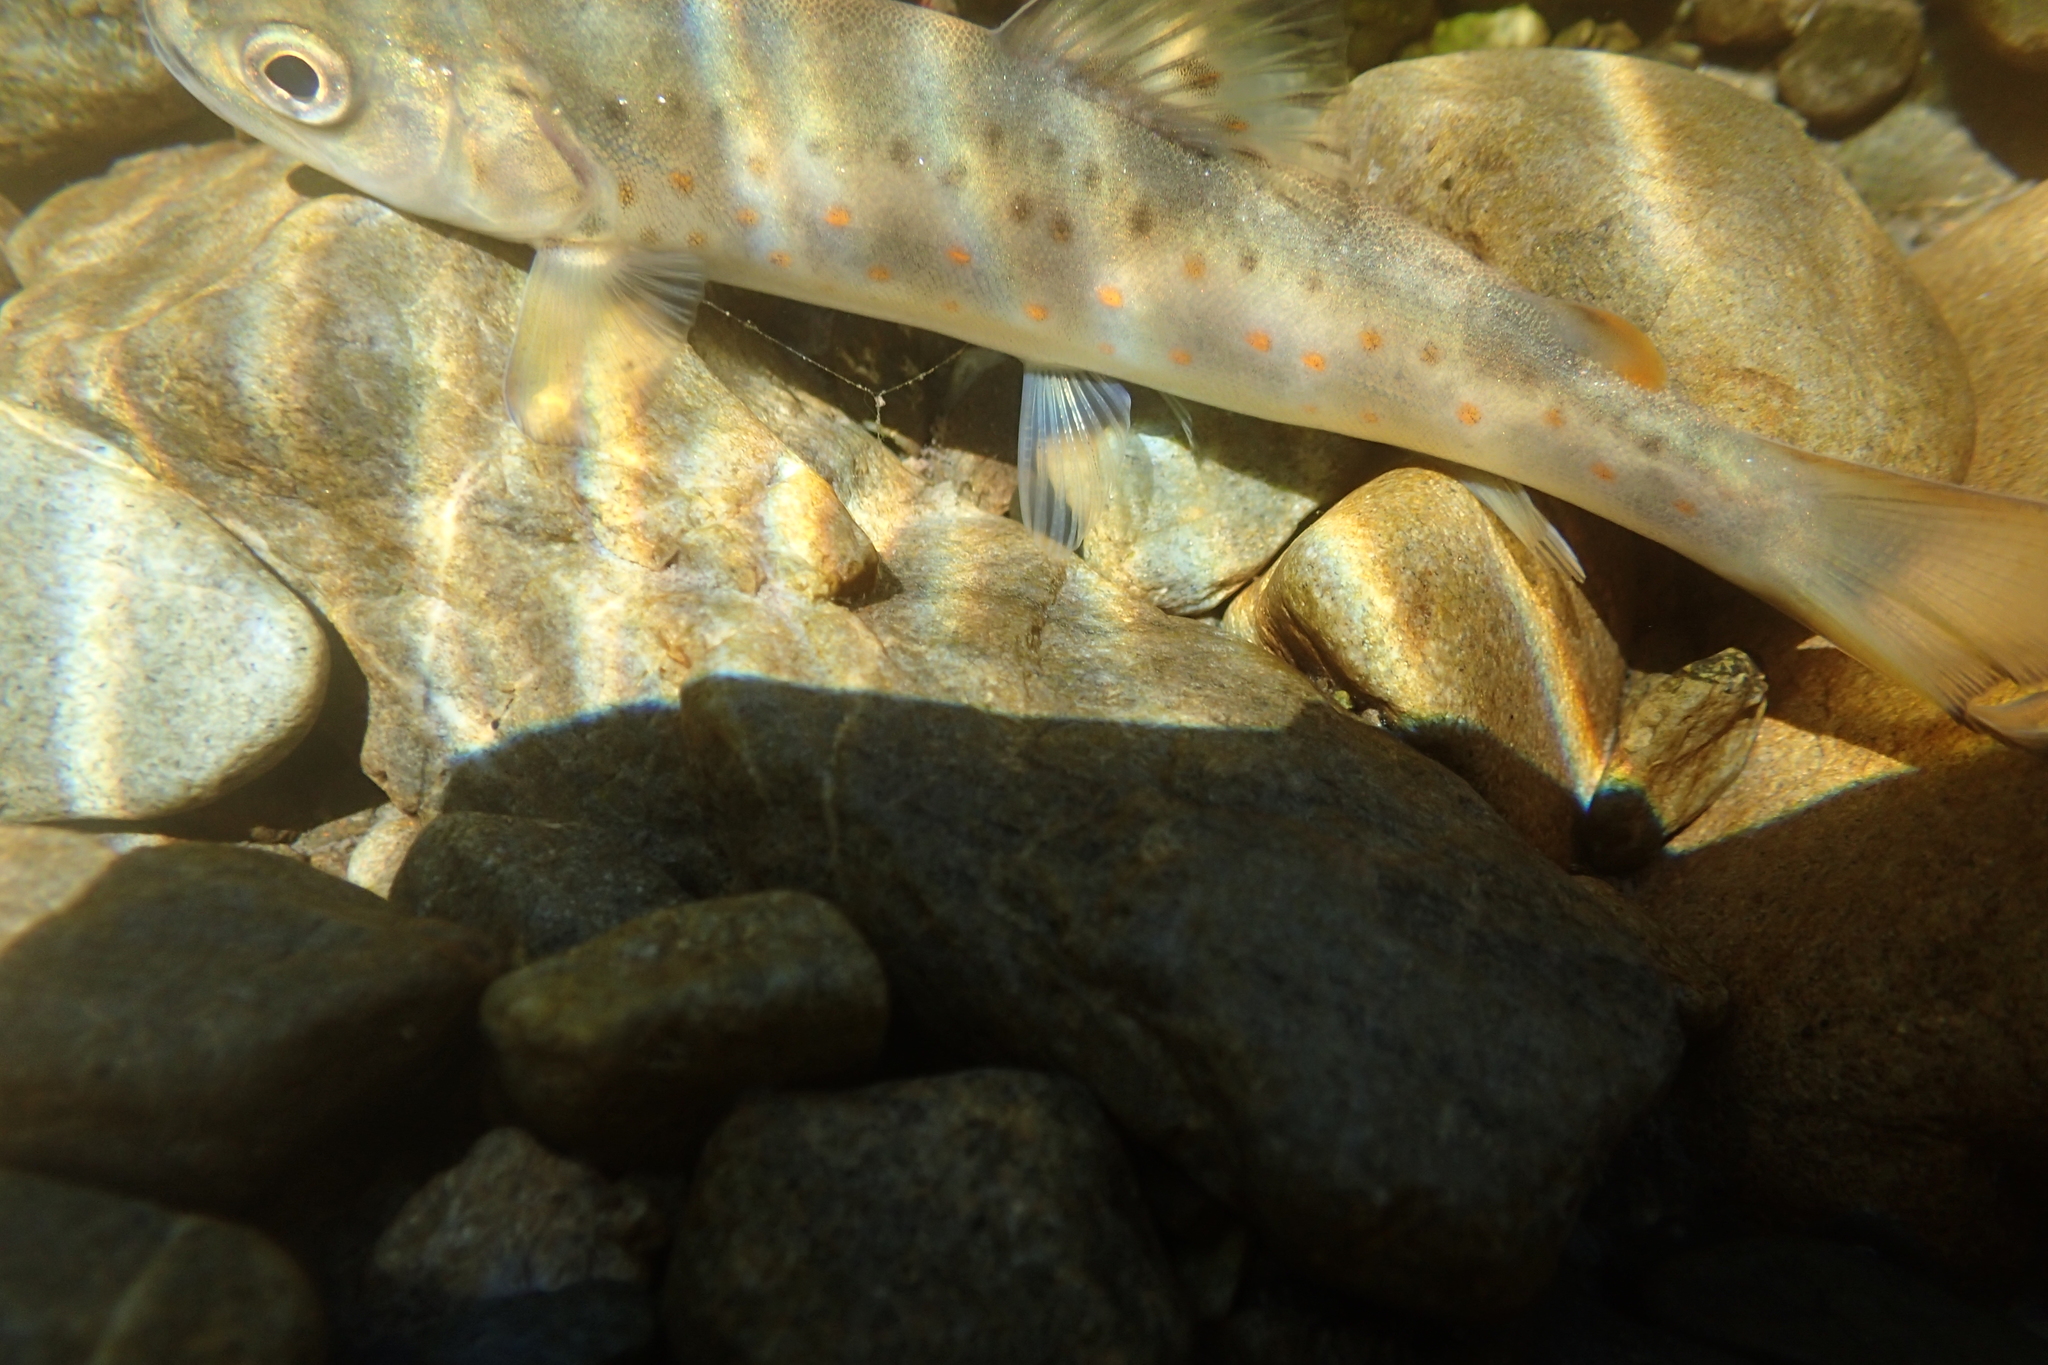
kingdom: Animalia
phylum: Chordata
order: Salmoniformes
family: Salmonidae
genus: Salmo
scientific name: Salmo trutta
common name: Brown trout
